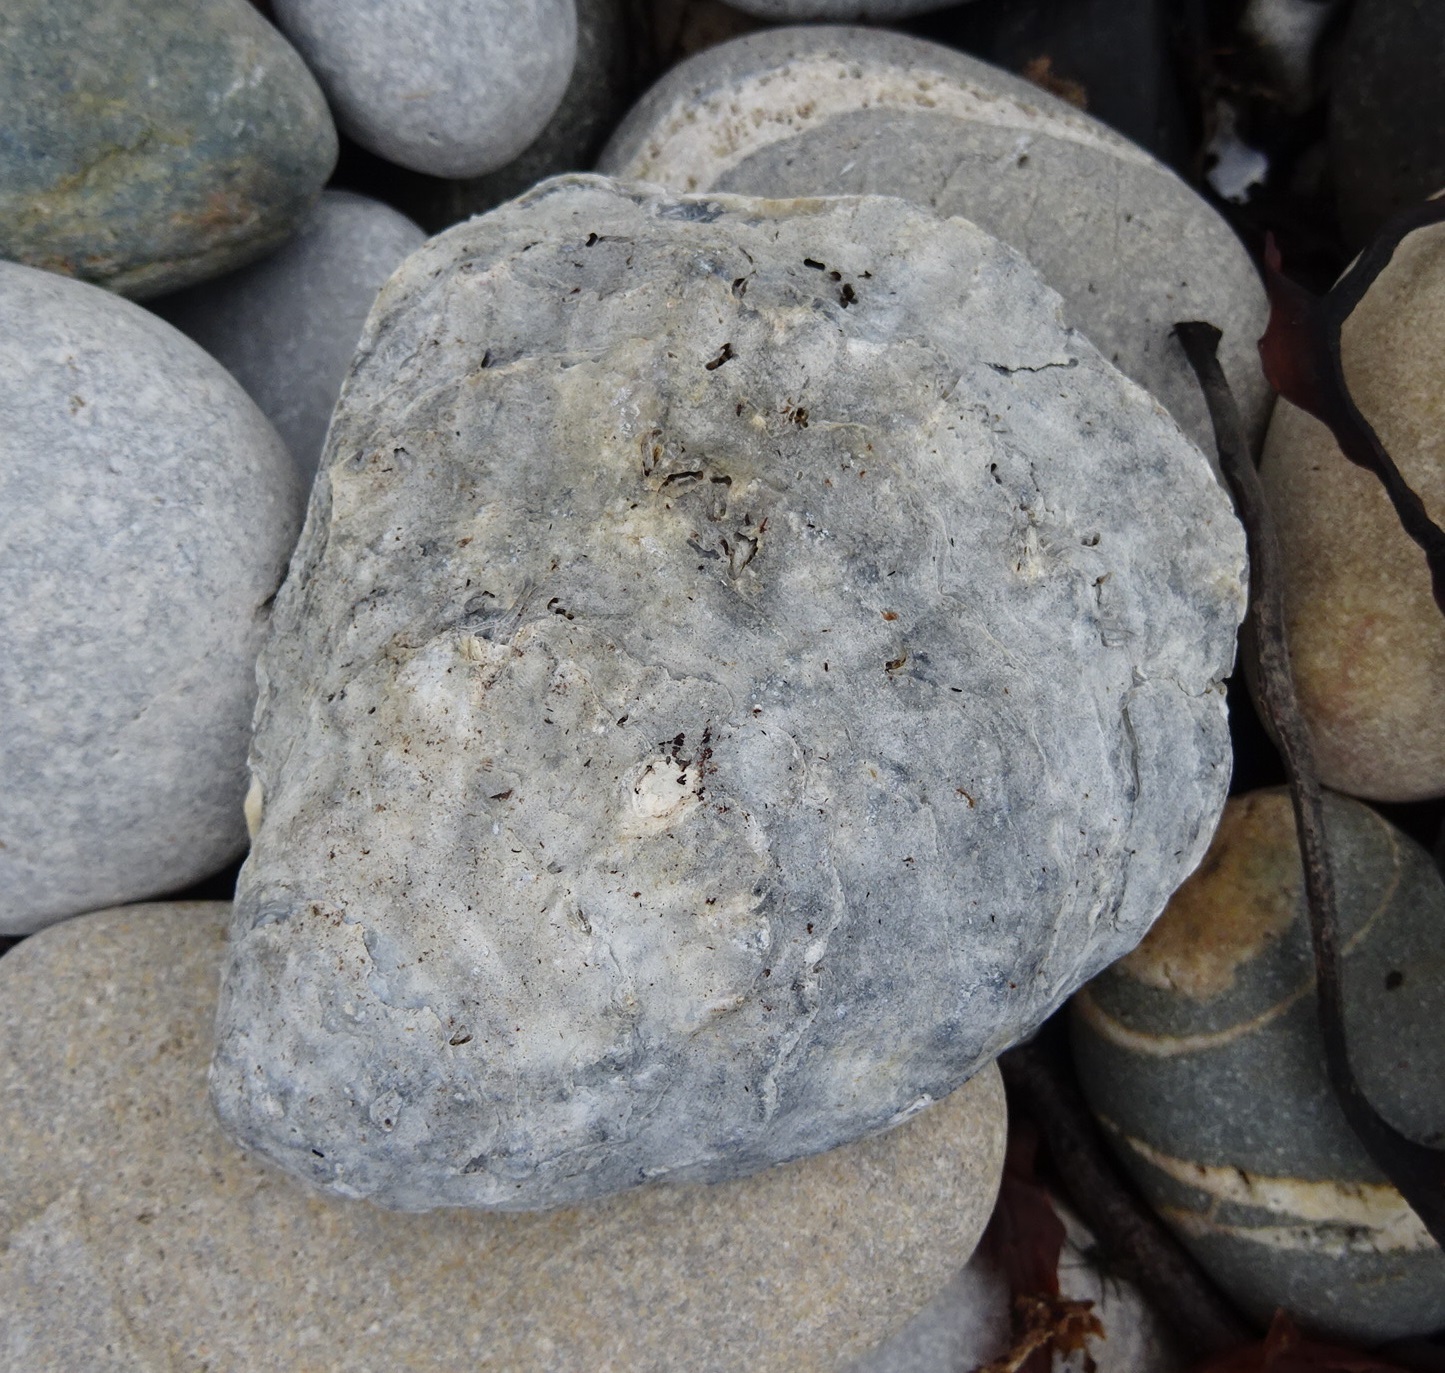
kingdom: Animalia
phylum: Mollusca
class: Bivalvia
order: Ostreida
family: Ostreidae
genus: Ostrea
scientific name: Ostrea edulis
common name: Flat oyster
